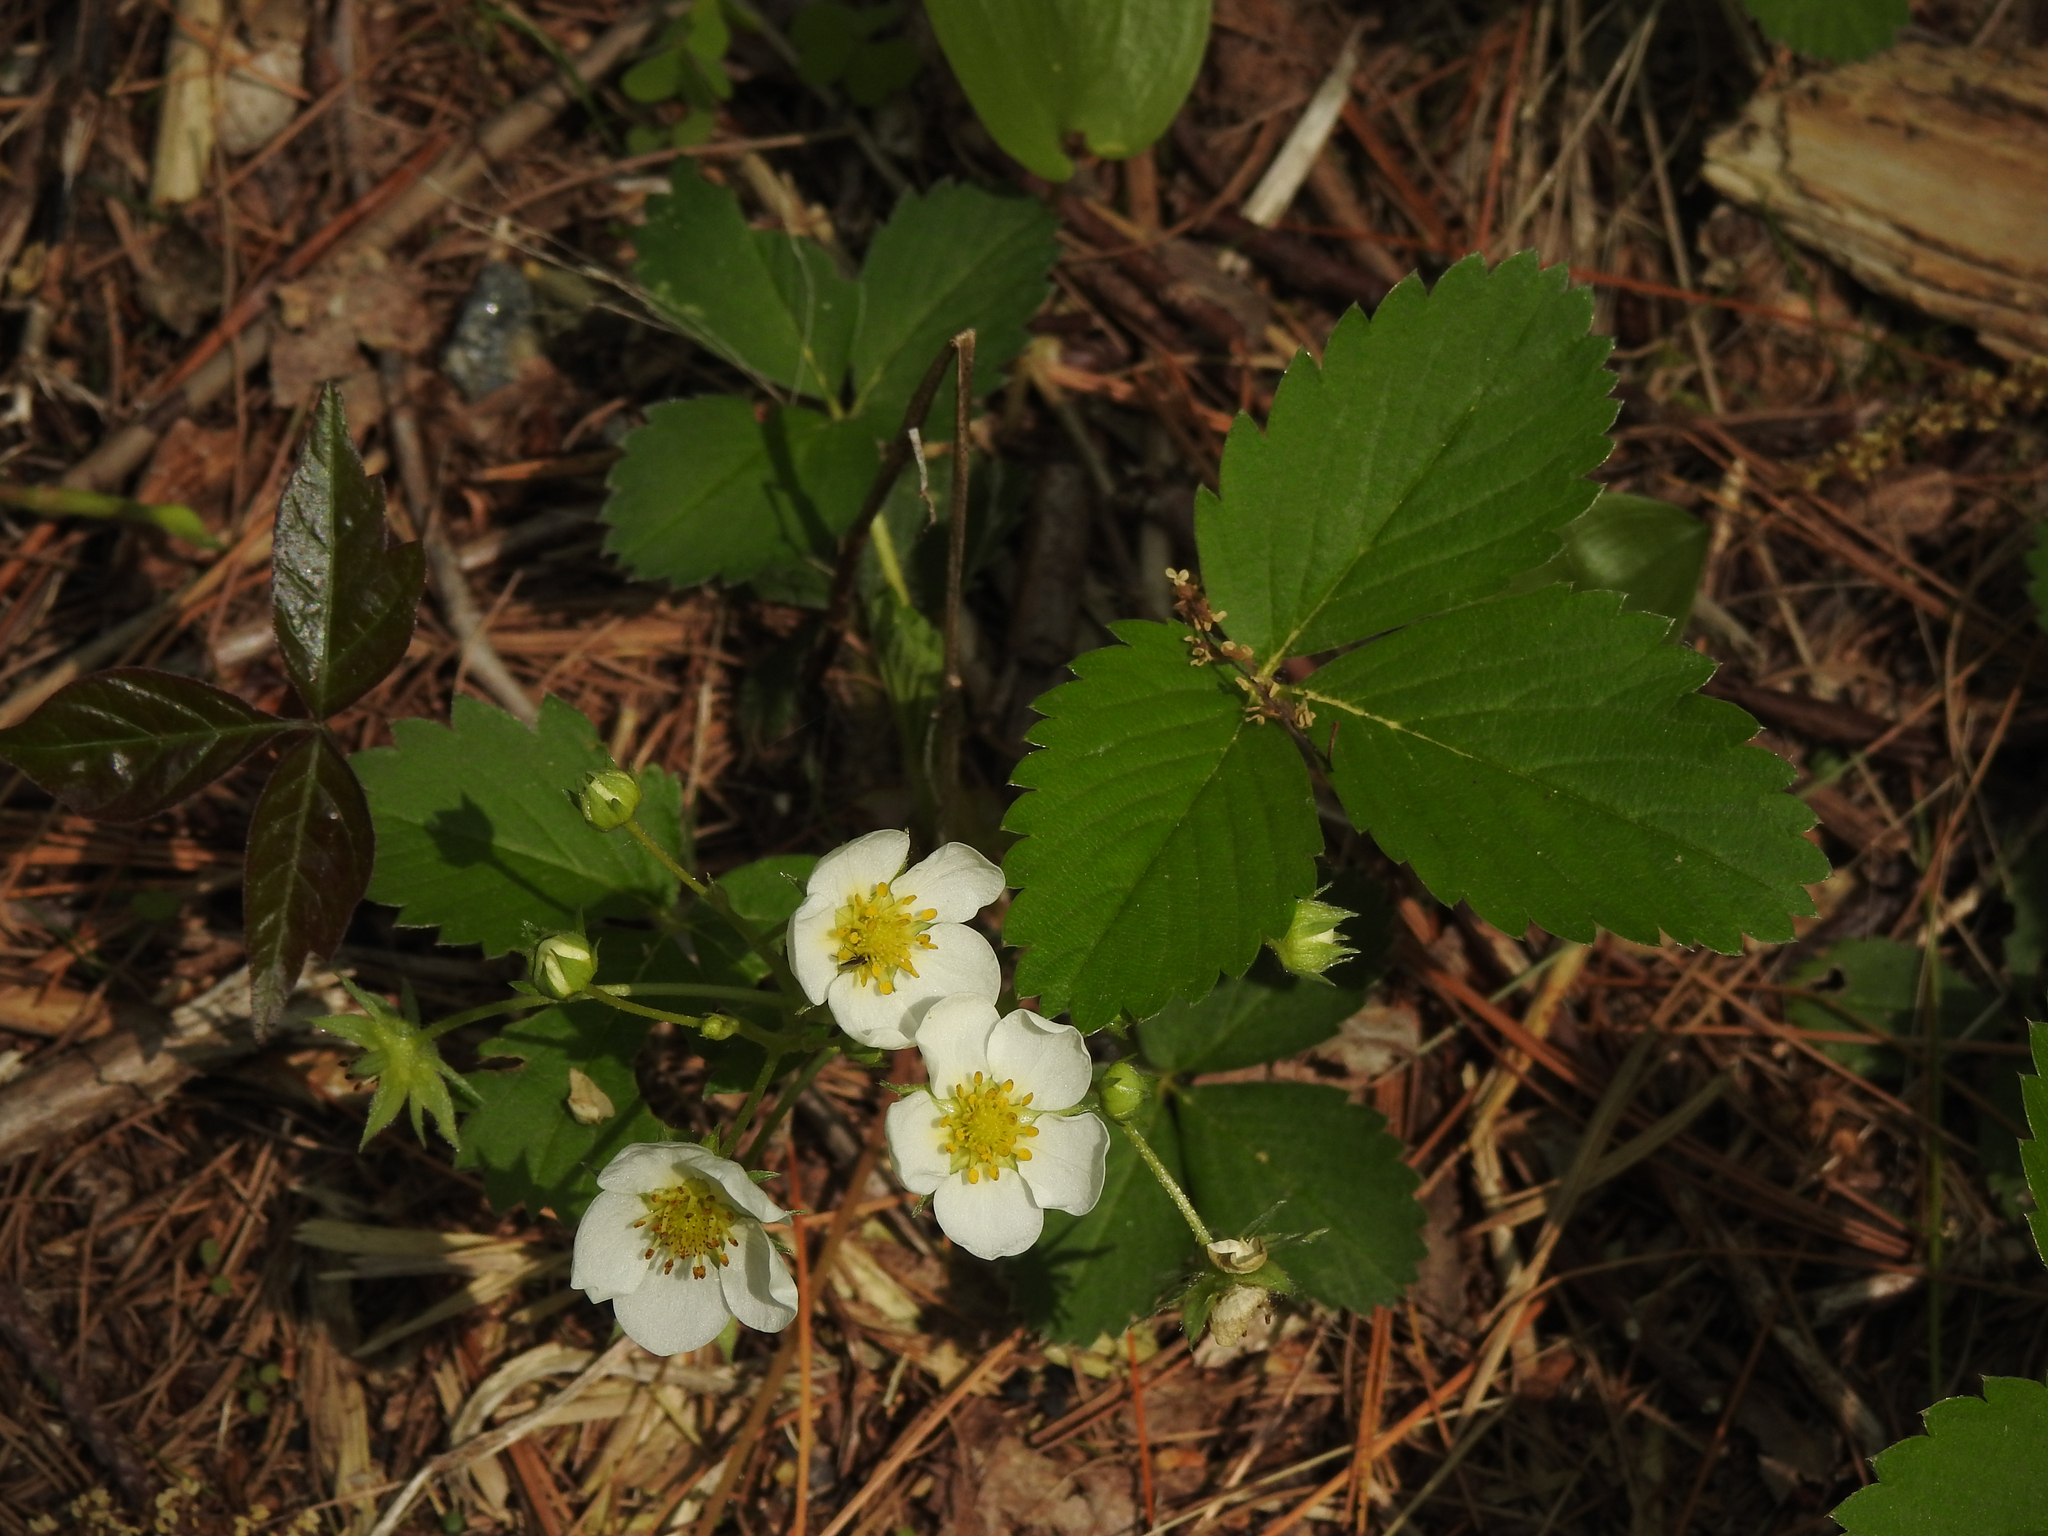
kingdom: Plantae
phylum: Tracheophyta
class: Magnoliopsida
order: Rosales
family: Rosaceae
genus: Fragaria
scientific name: Fragaria virginiana
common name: Thickleaved wild strawberry
